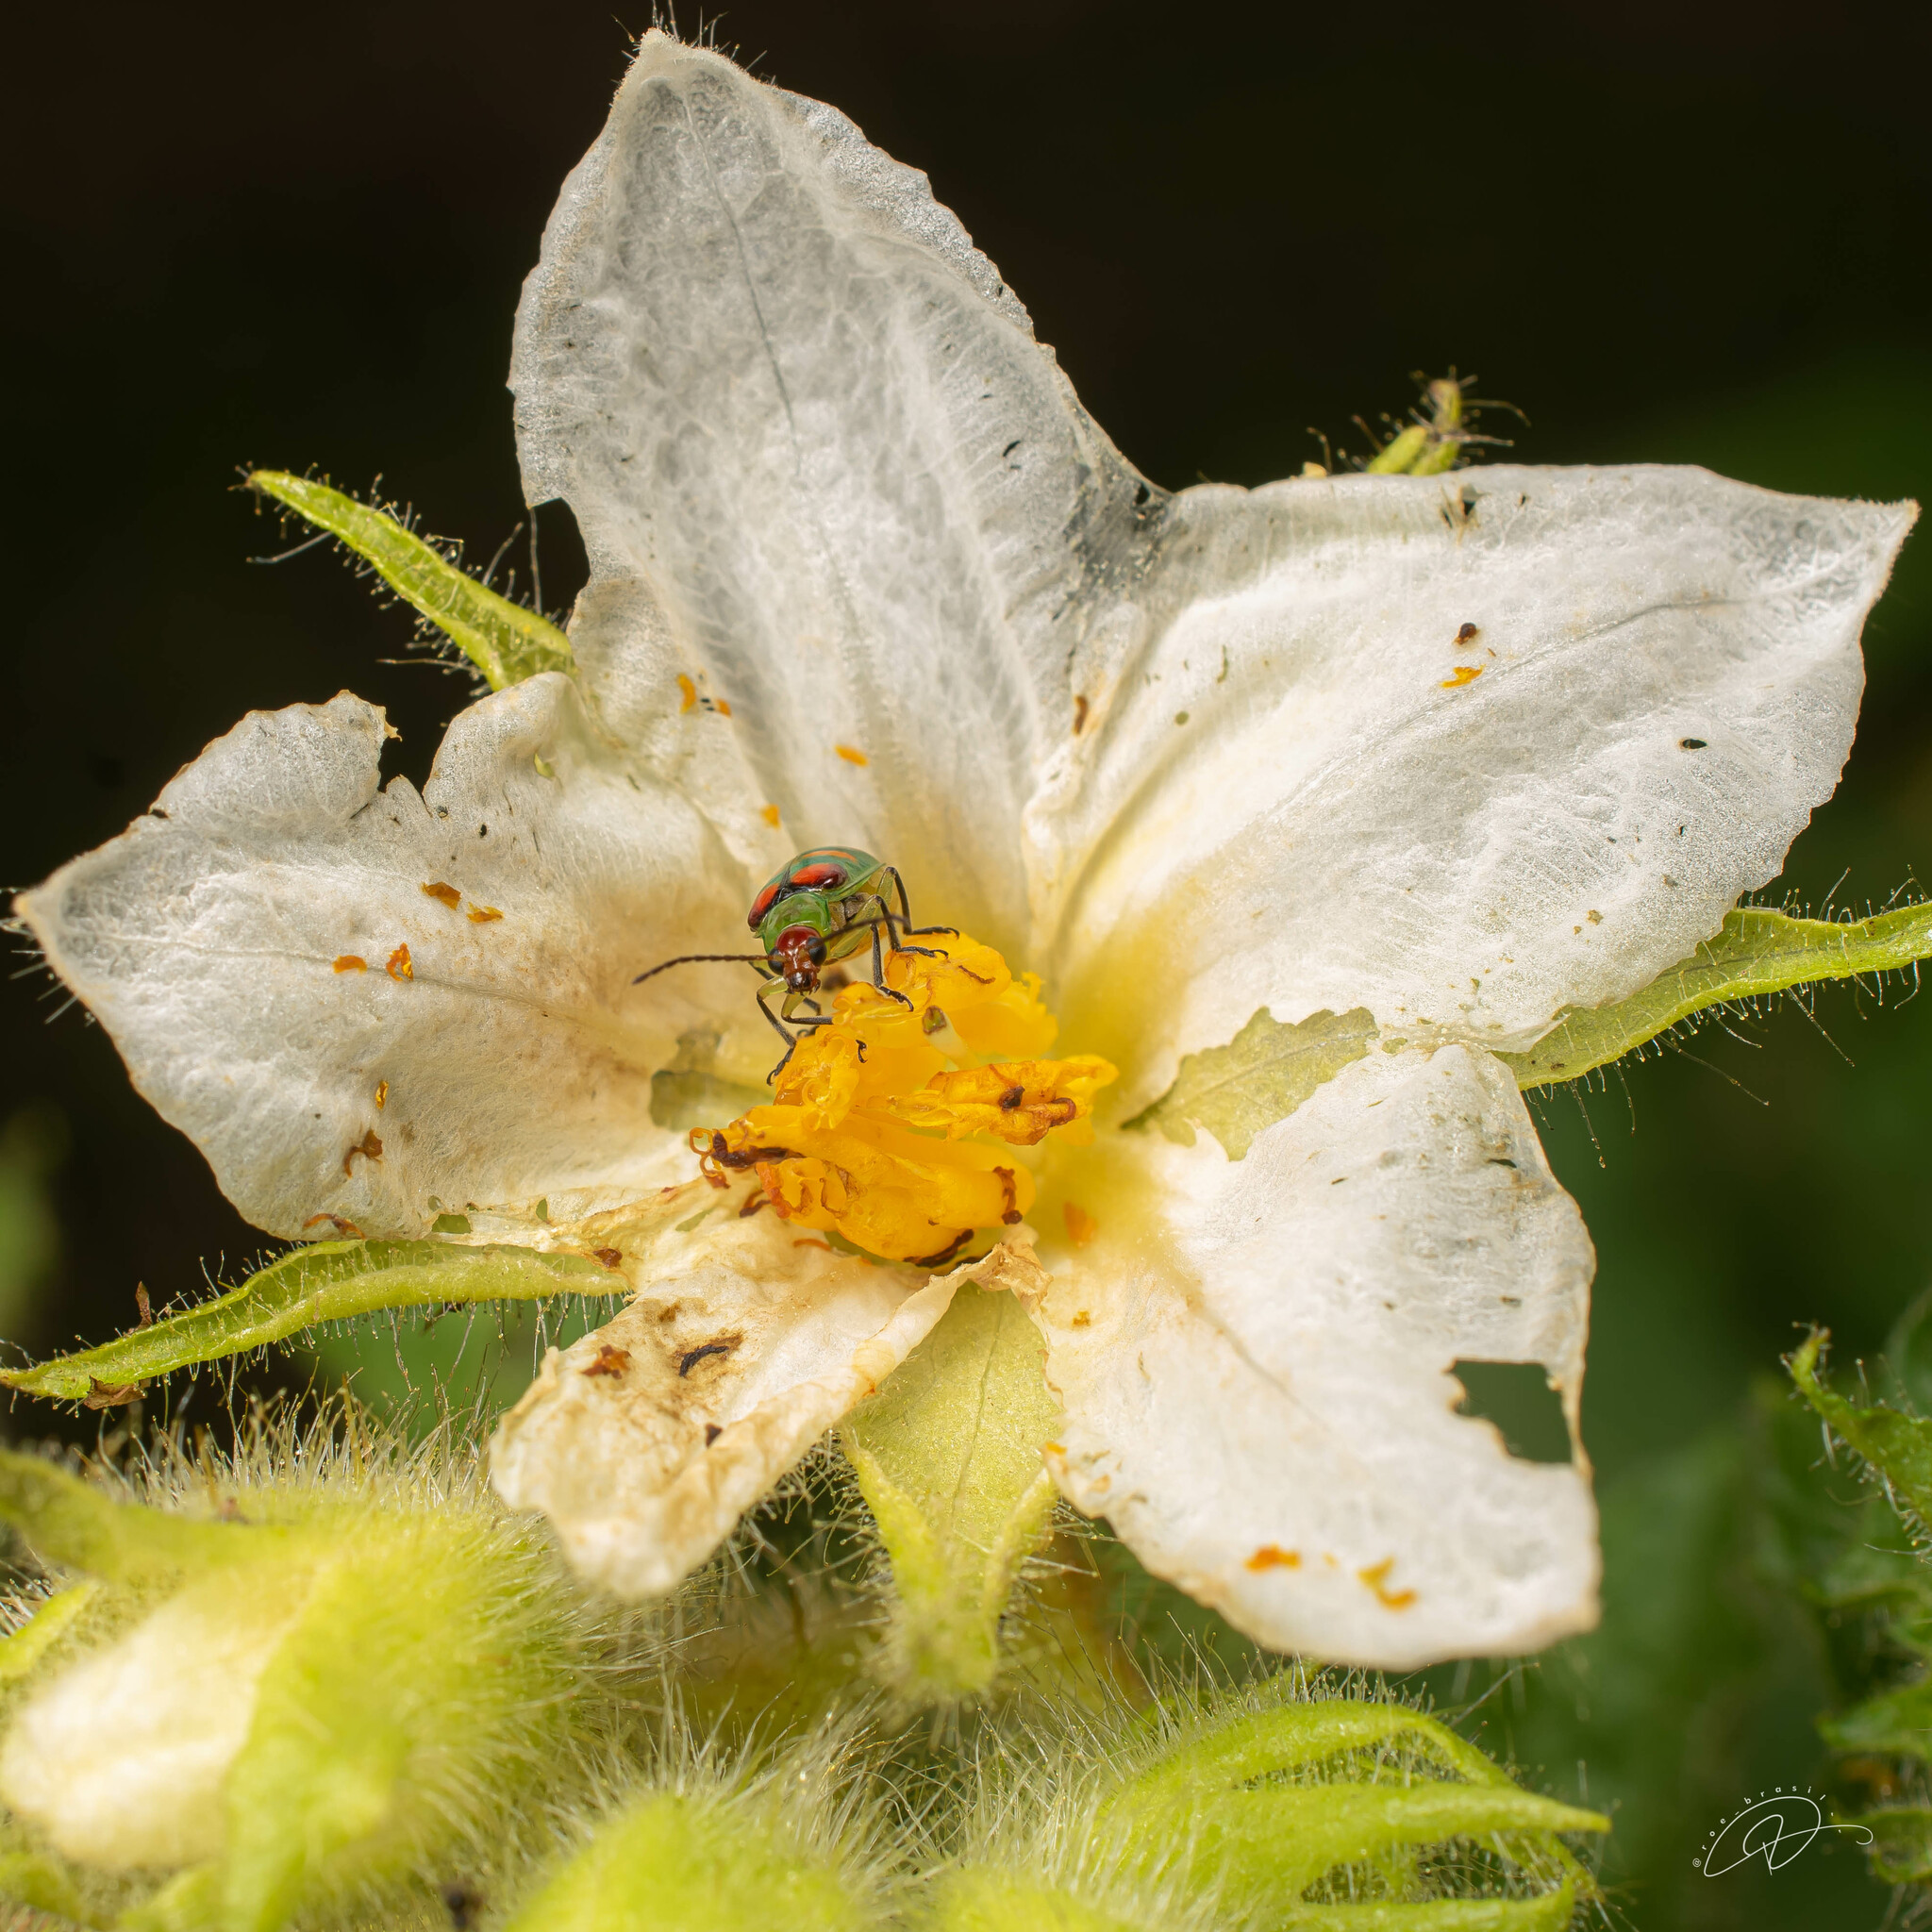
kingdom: Animalia
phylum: Arthropoda
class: Insecta
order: Coleoptera
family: Chrysomelidae
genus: Diabrotica
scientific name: Diabrotica speciosa
